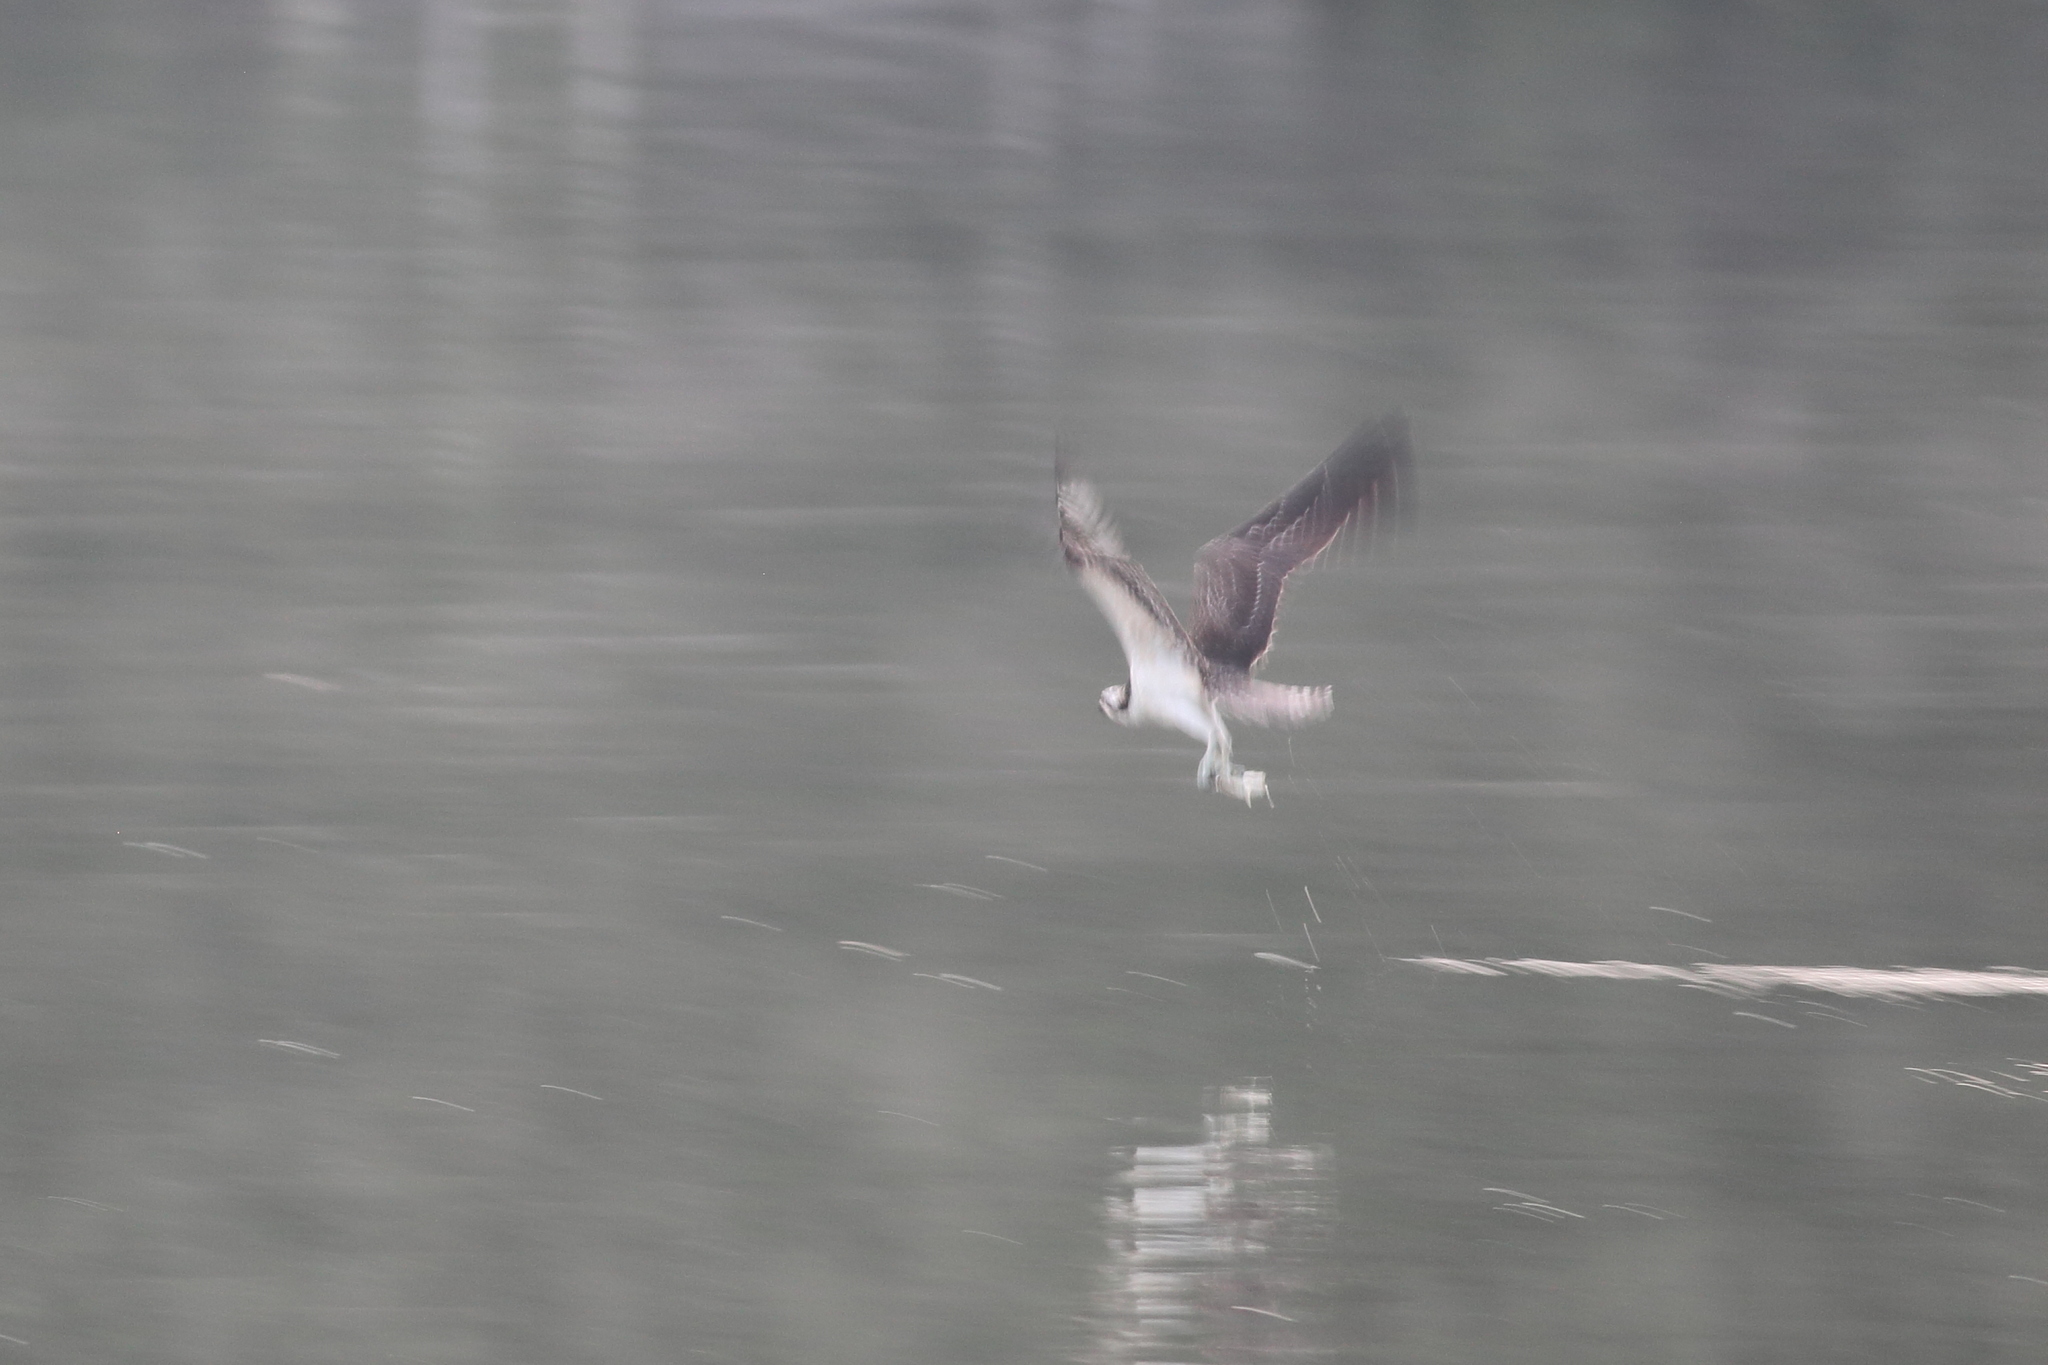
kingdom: Animalia
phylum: Chordata
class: Aves
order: Accipitriformes
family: Pandionidae
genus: Pandion
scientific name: Pandion haliaetus
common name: Osprey
